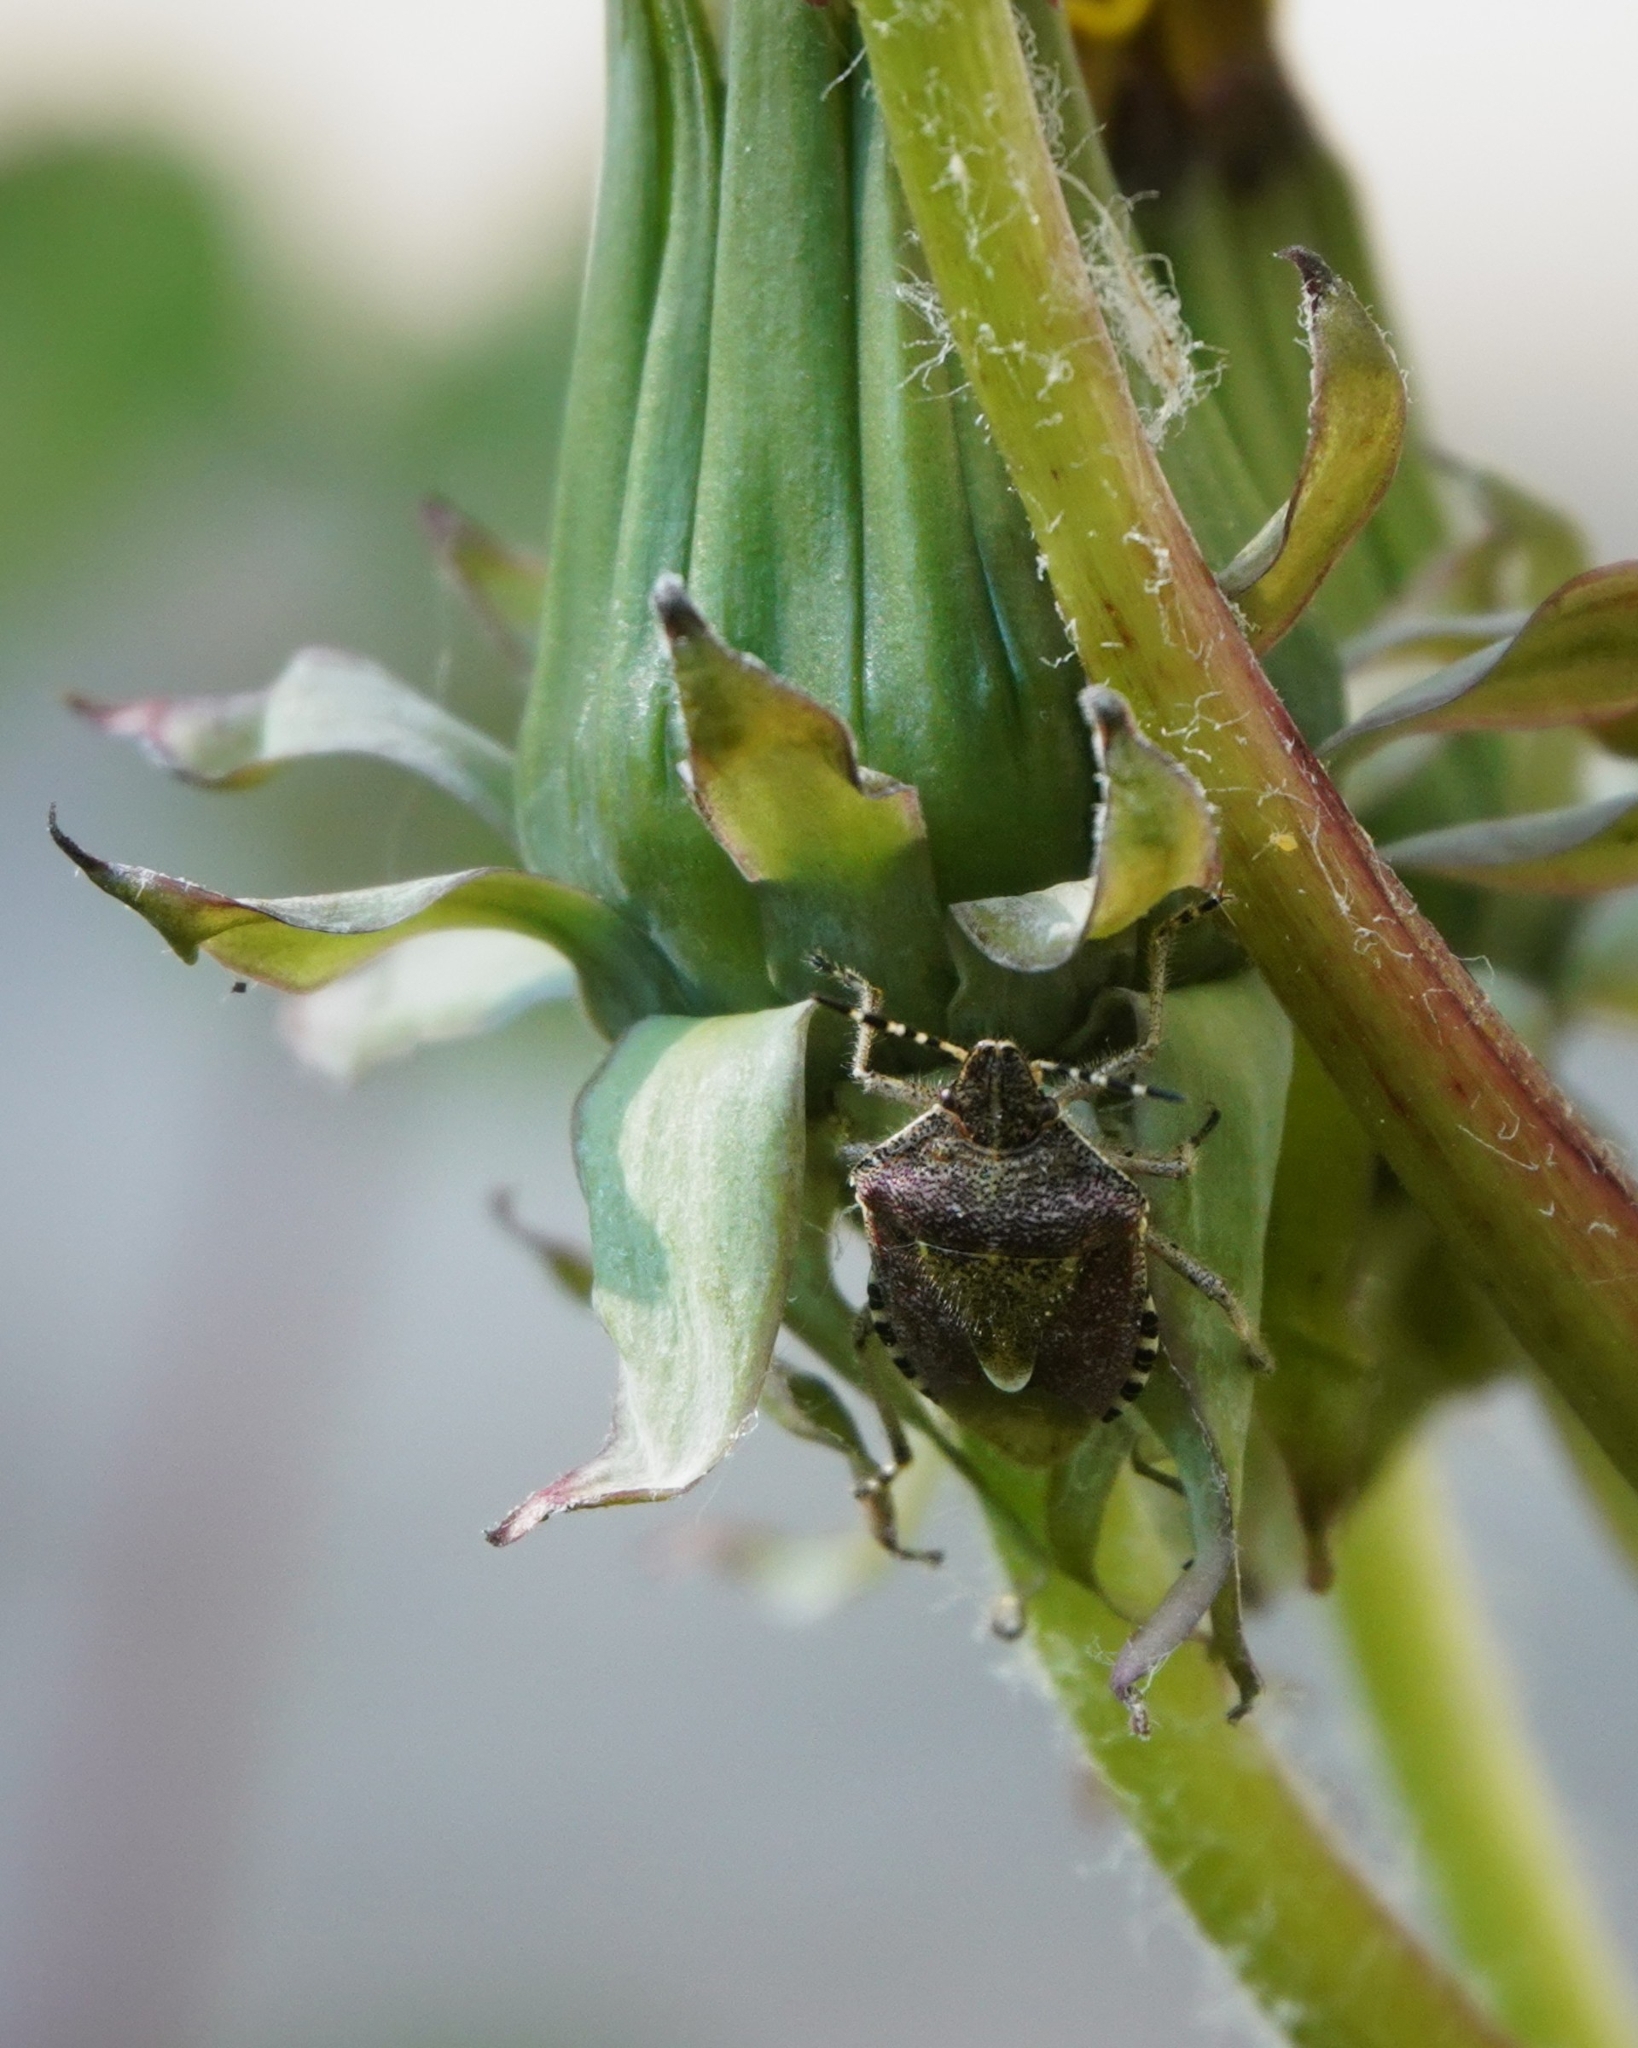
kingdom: Animalia
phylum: Arthropoda
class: Insecta
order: Hemiptera
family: Pentatomidae
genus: Dolycoris
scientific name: Dolycoris baccarum
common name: Sloe bug
